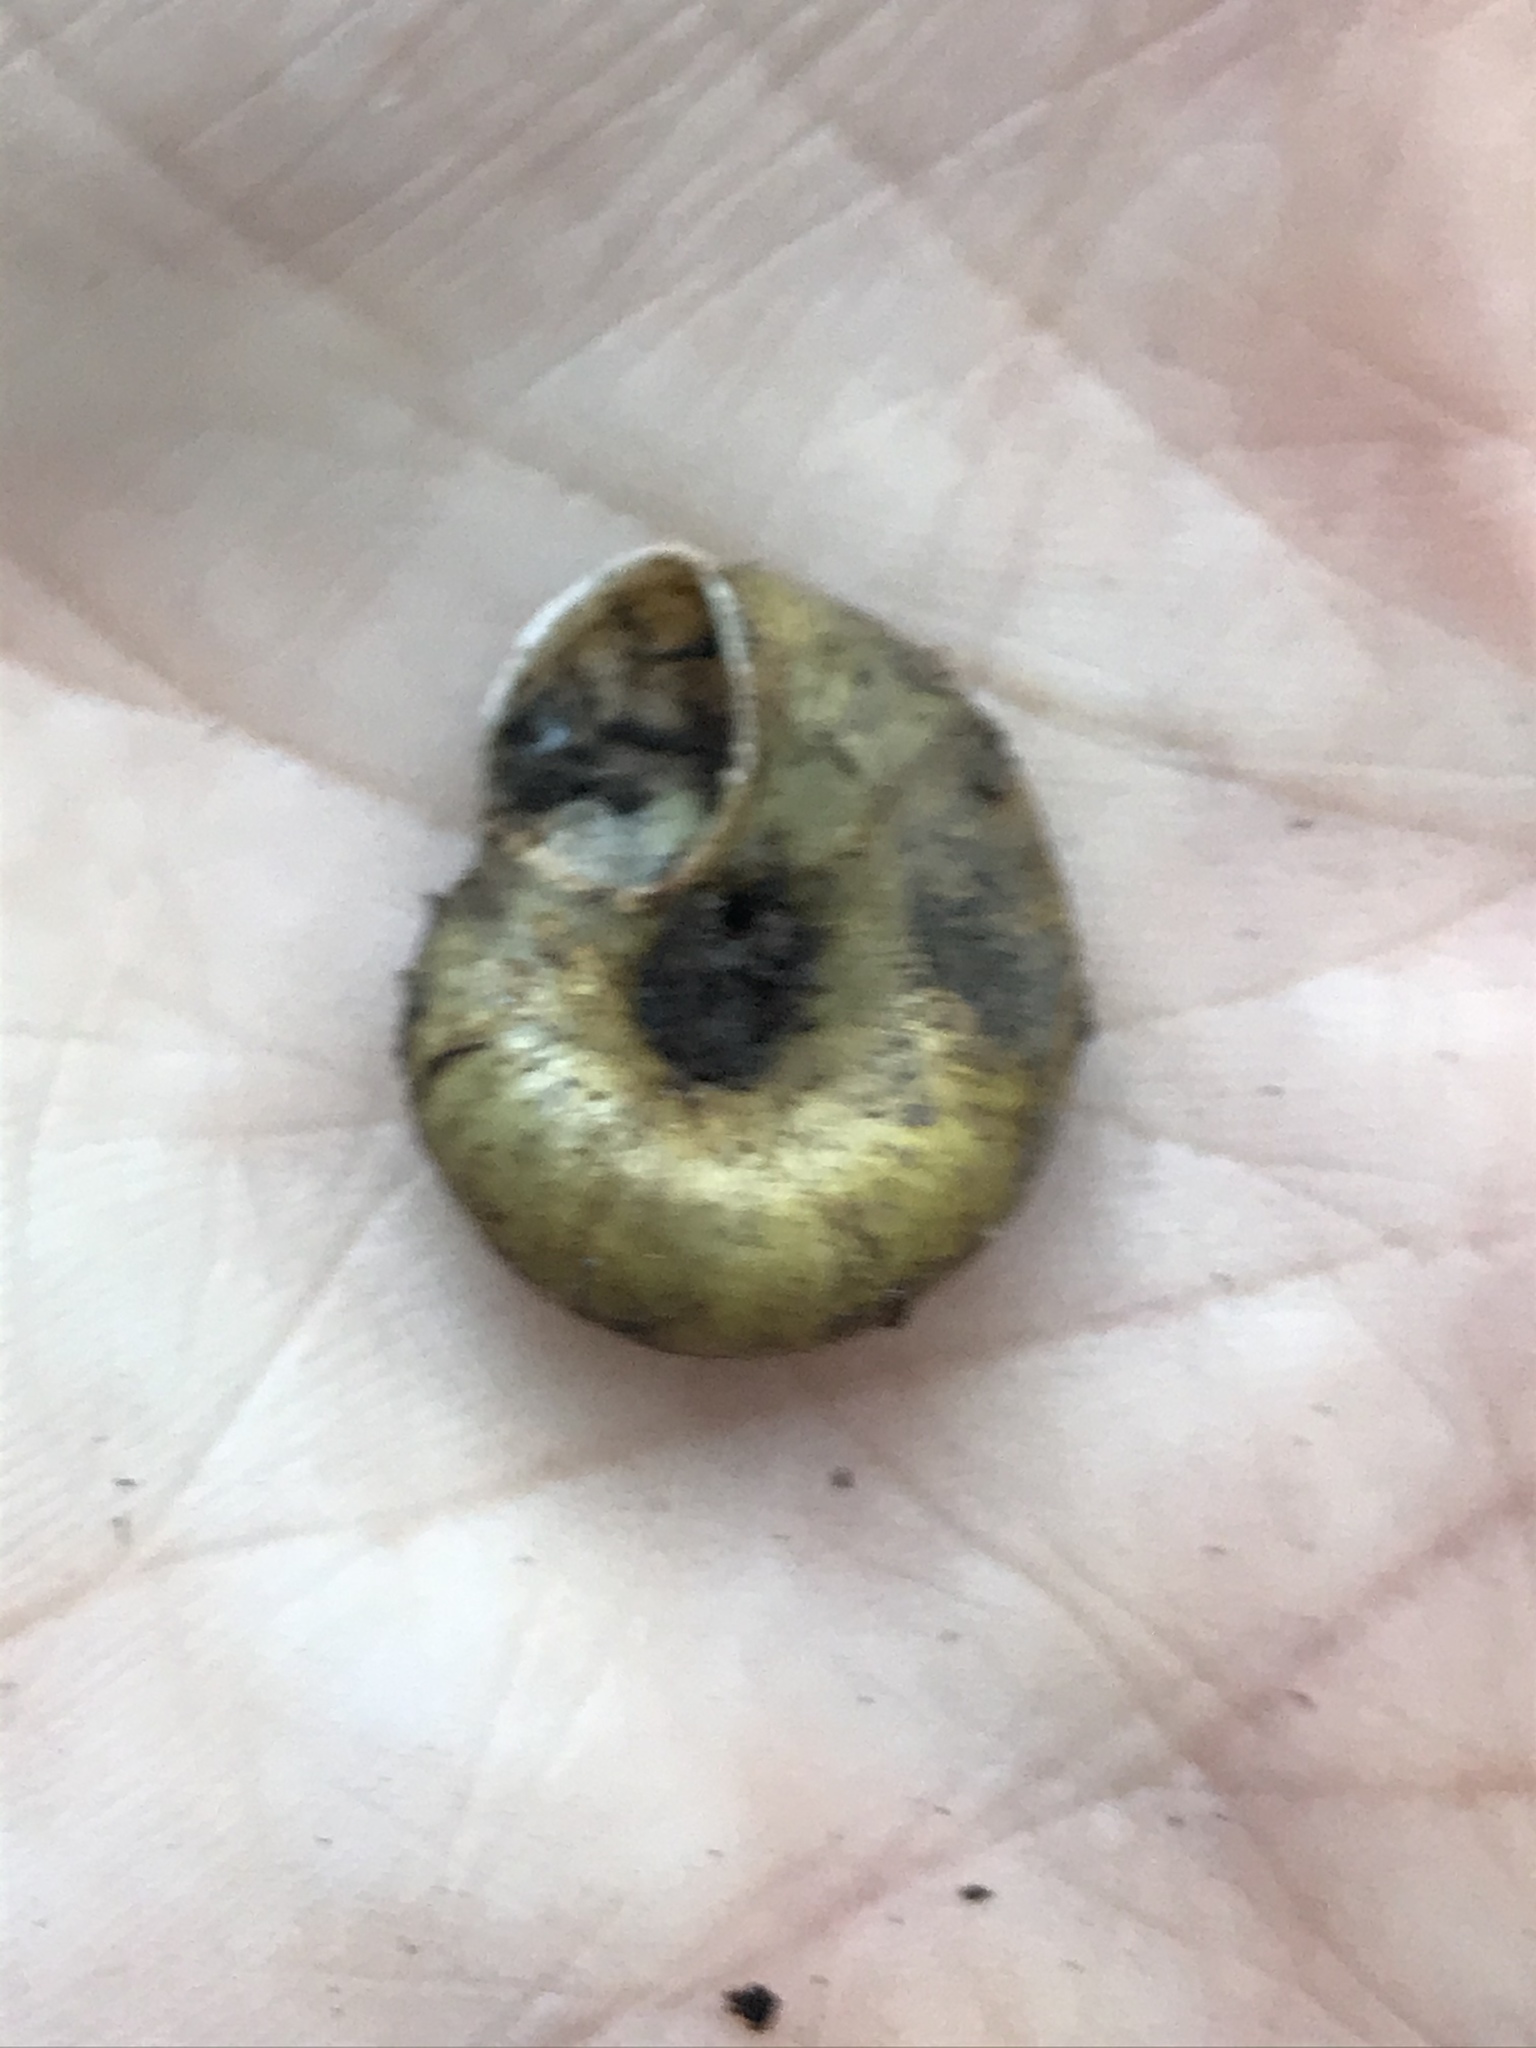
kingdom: Animalia
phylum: Mollusca
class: Gastropoda
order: Stylommatophora
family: Haplotrematidae
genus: Haplotrema
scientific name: Haplotrema minimum
